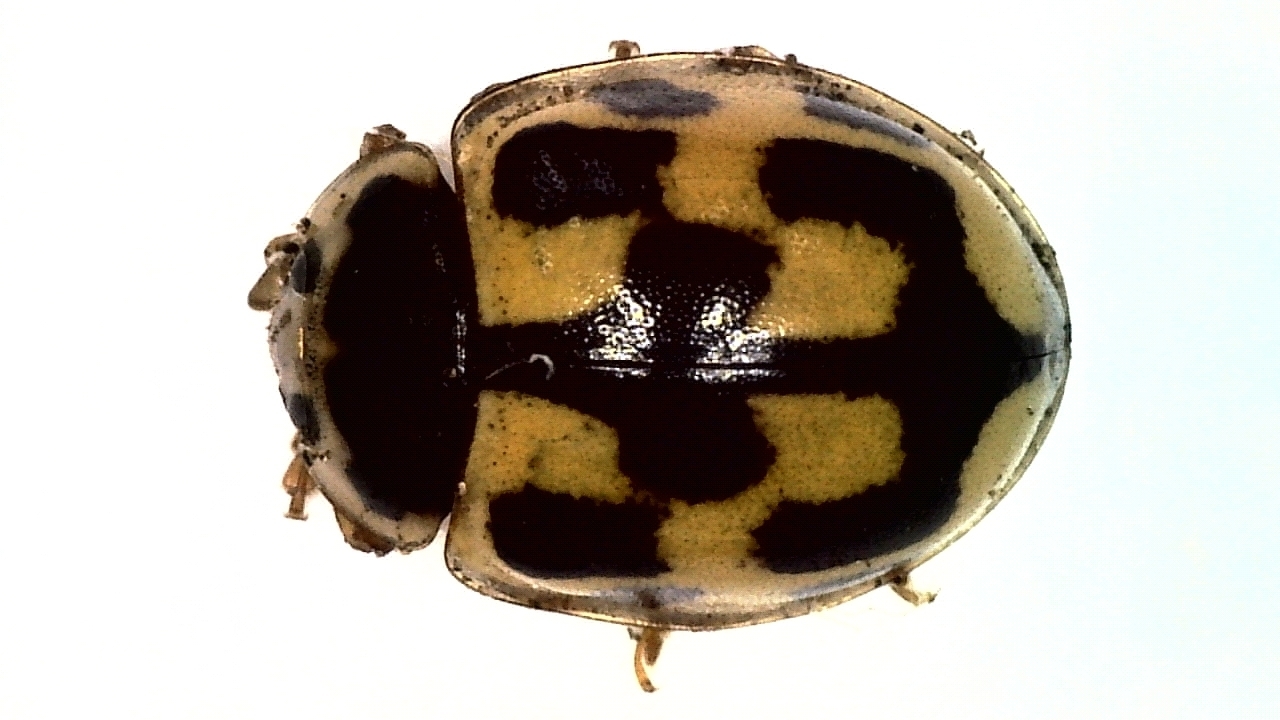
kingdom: Animalia
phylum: Arthropoda
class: Insecta
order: Coleoptera
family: Coccinellidae
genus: Propylaea
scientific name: Propylaea quatuordecimpunctata
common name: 14-spotted ladybird beetle
